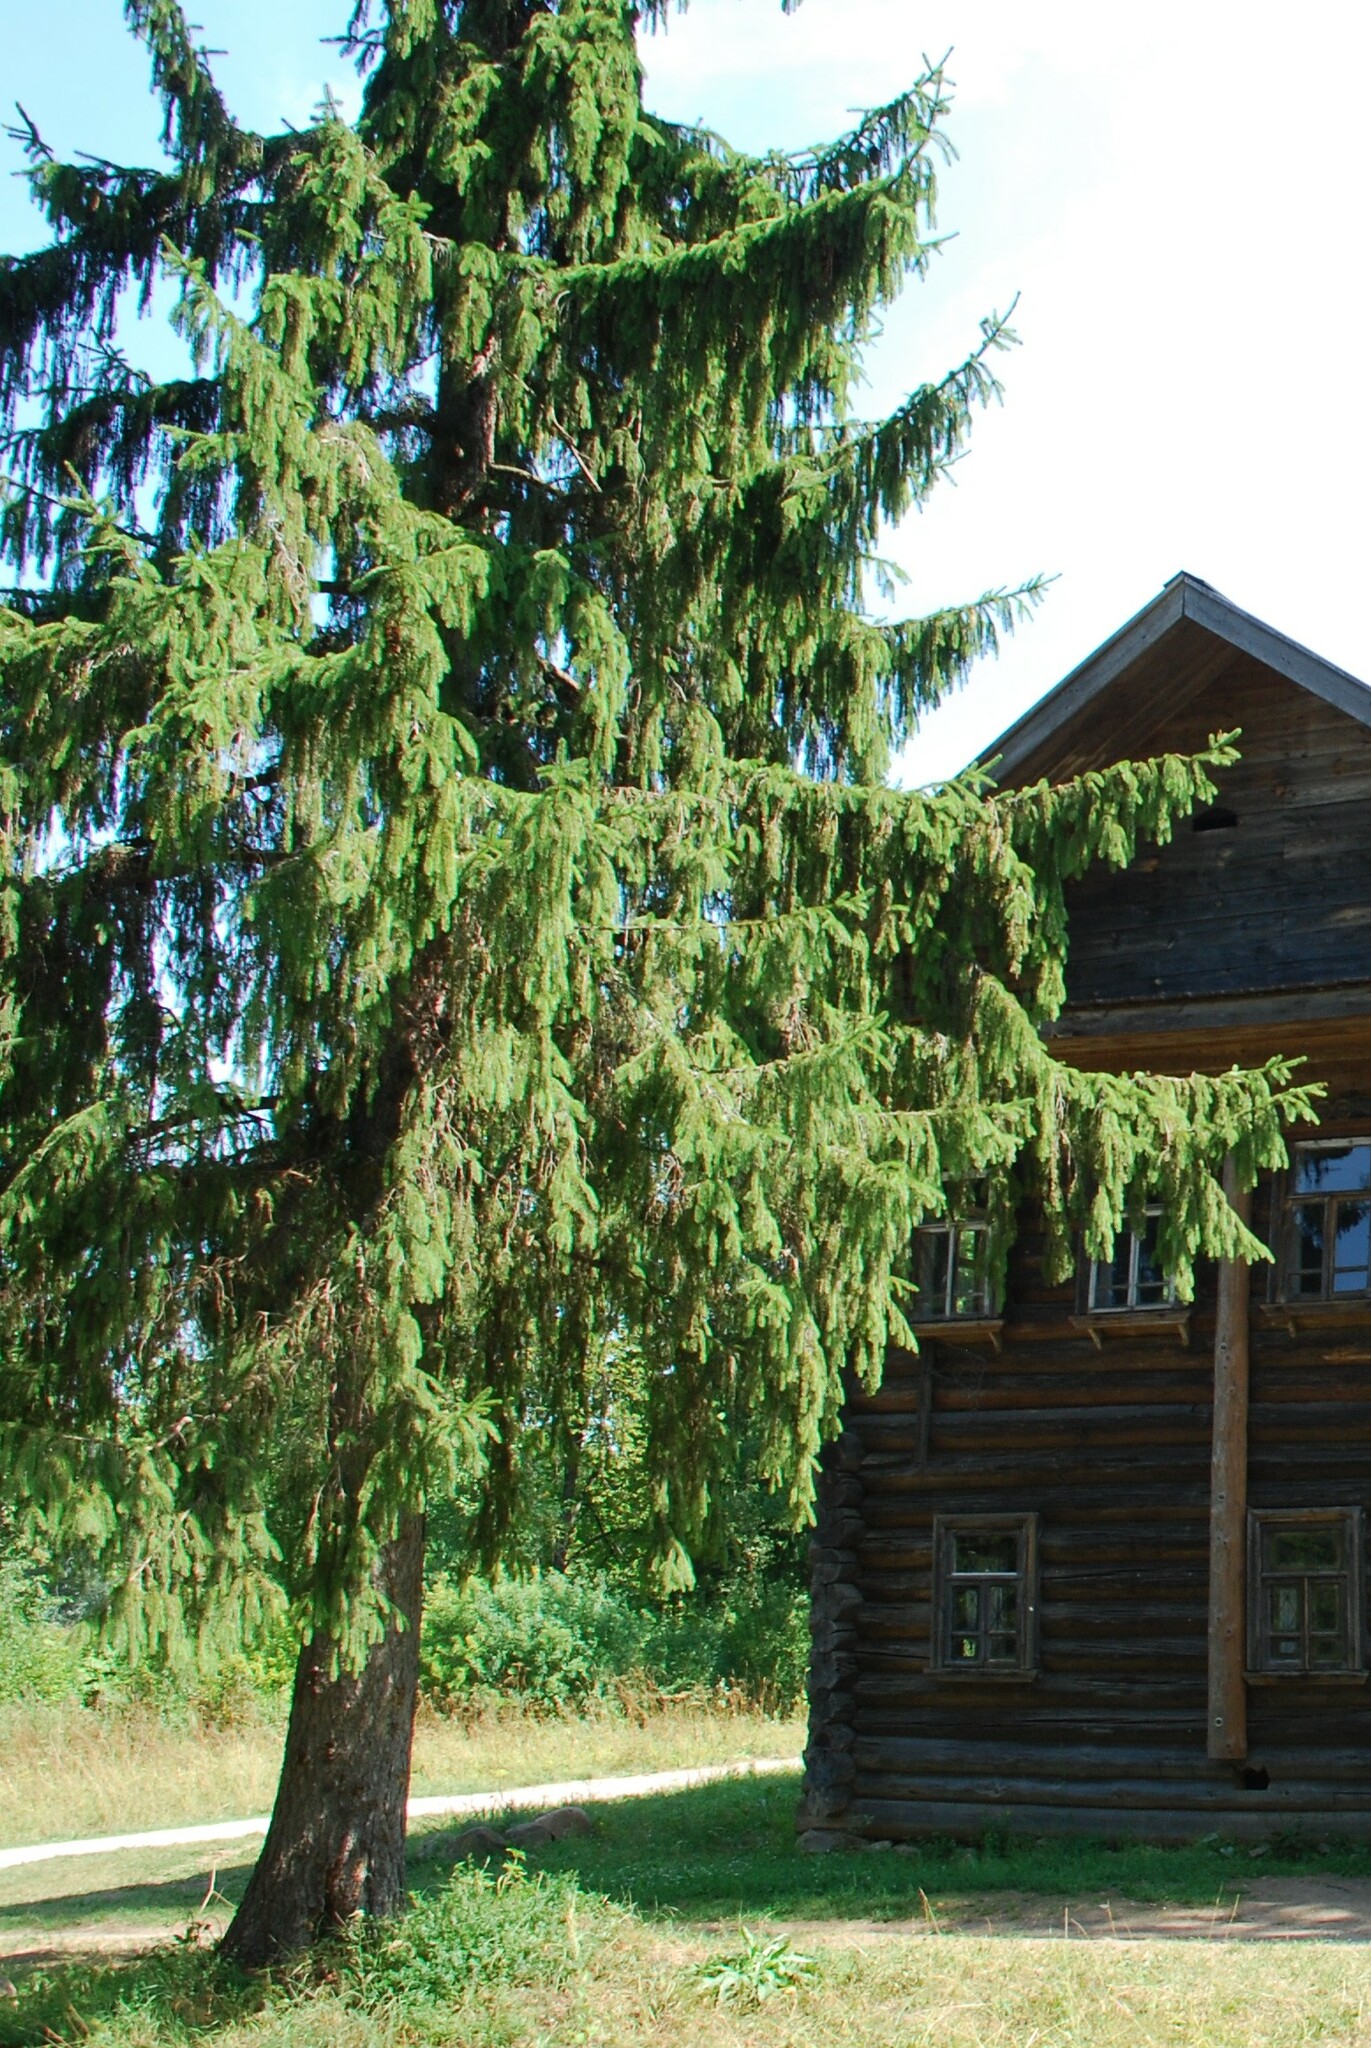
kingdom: Plantae
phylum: Tracheophyta
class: Pinopsida
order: Pinales
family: Pinaceae
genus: Picea
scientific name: Picea abies
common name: Norway spruce
